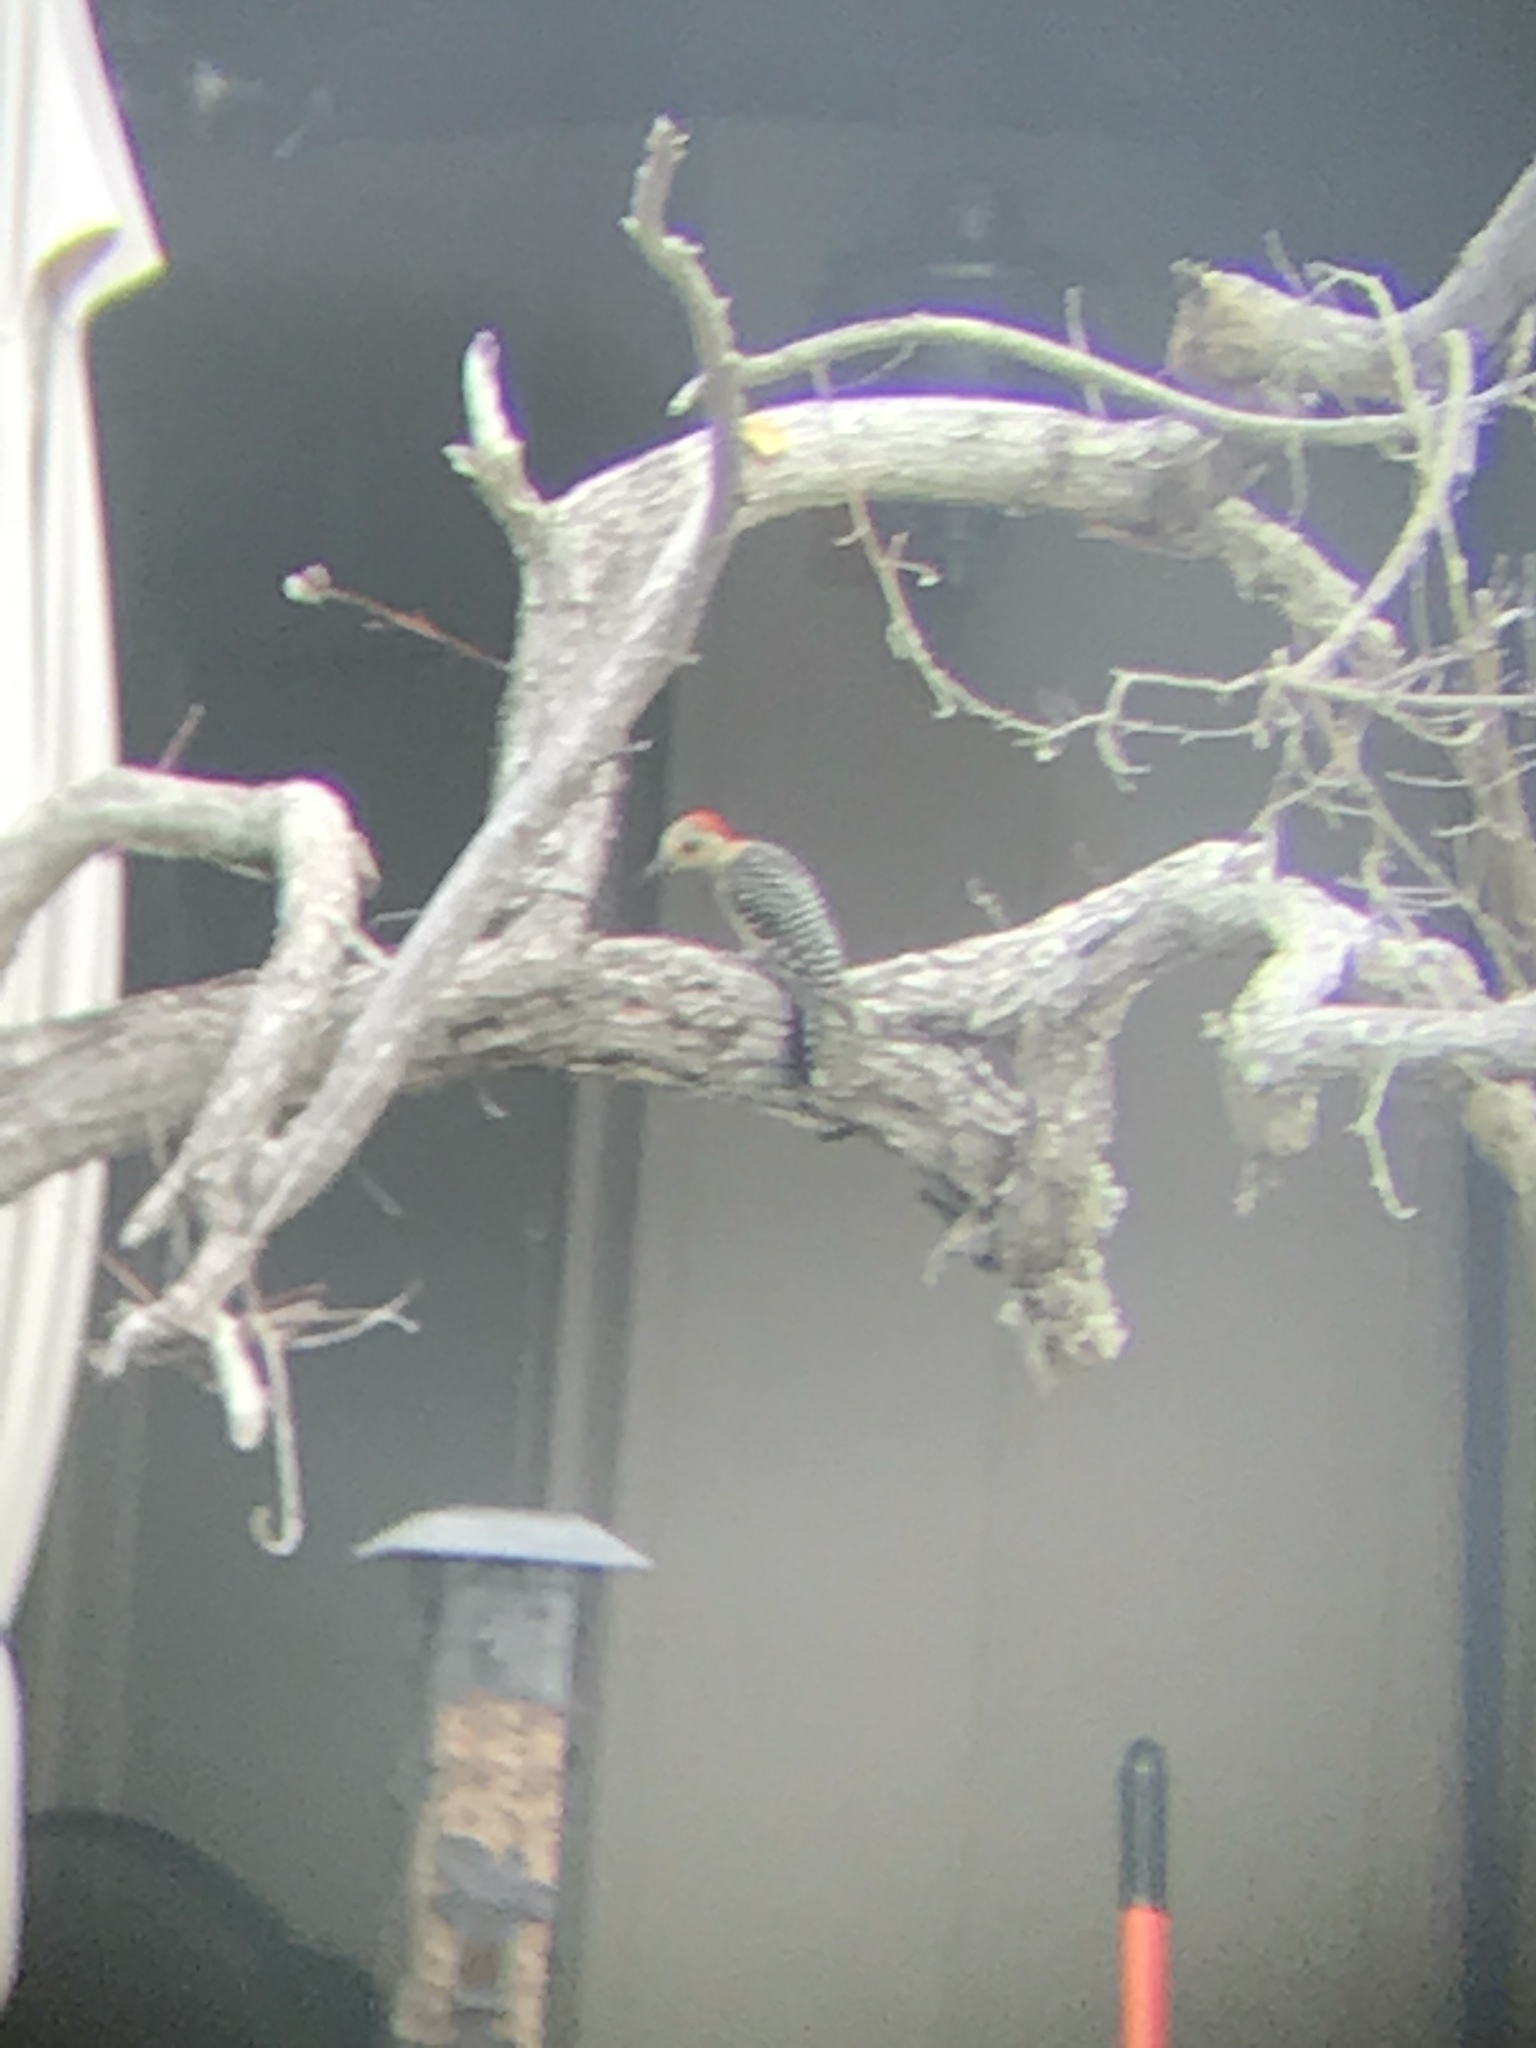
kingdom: Animalia
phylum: Chordata
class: Aves
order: Piciformes
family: Picidae
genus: Melanerpes
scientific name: Melanerpes carolinus
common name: Red-bellied woodpecker
